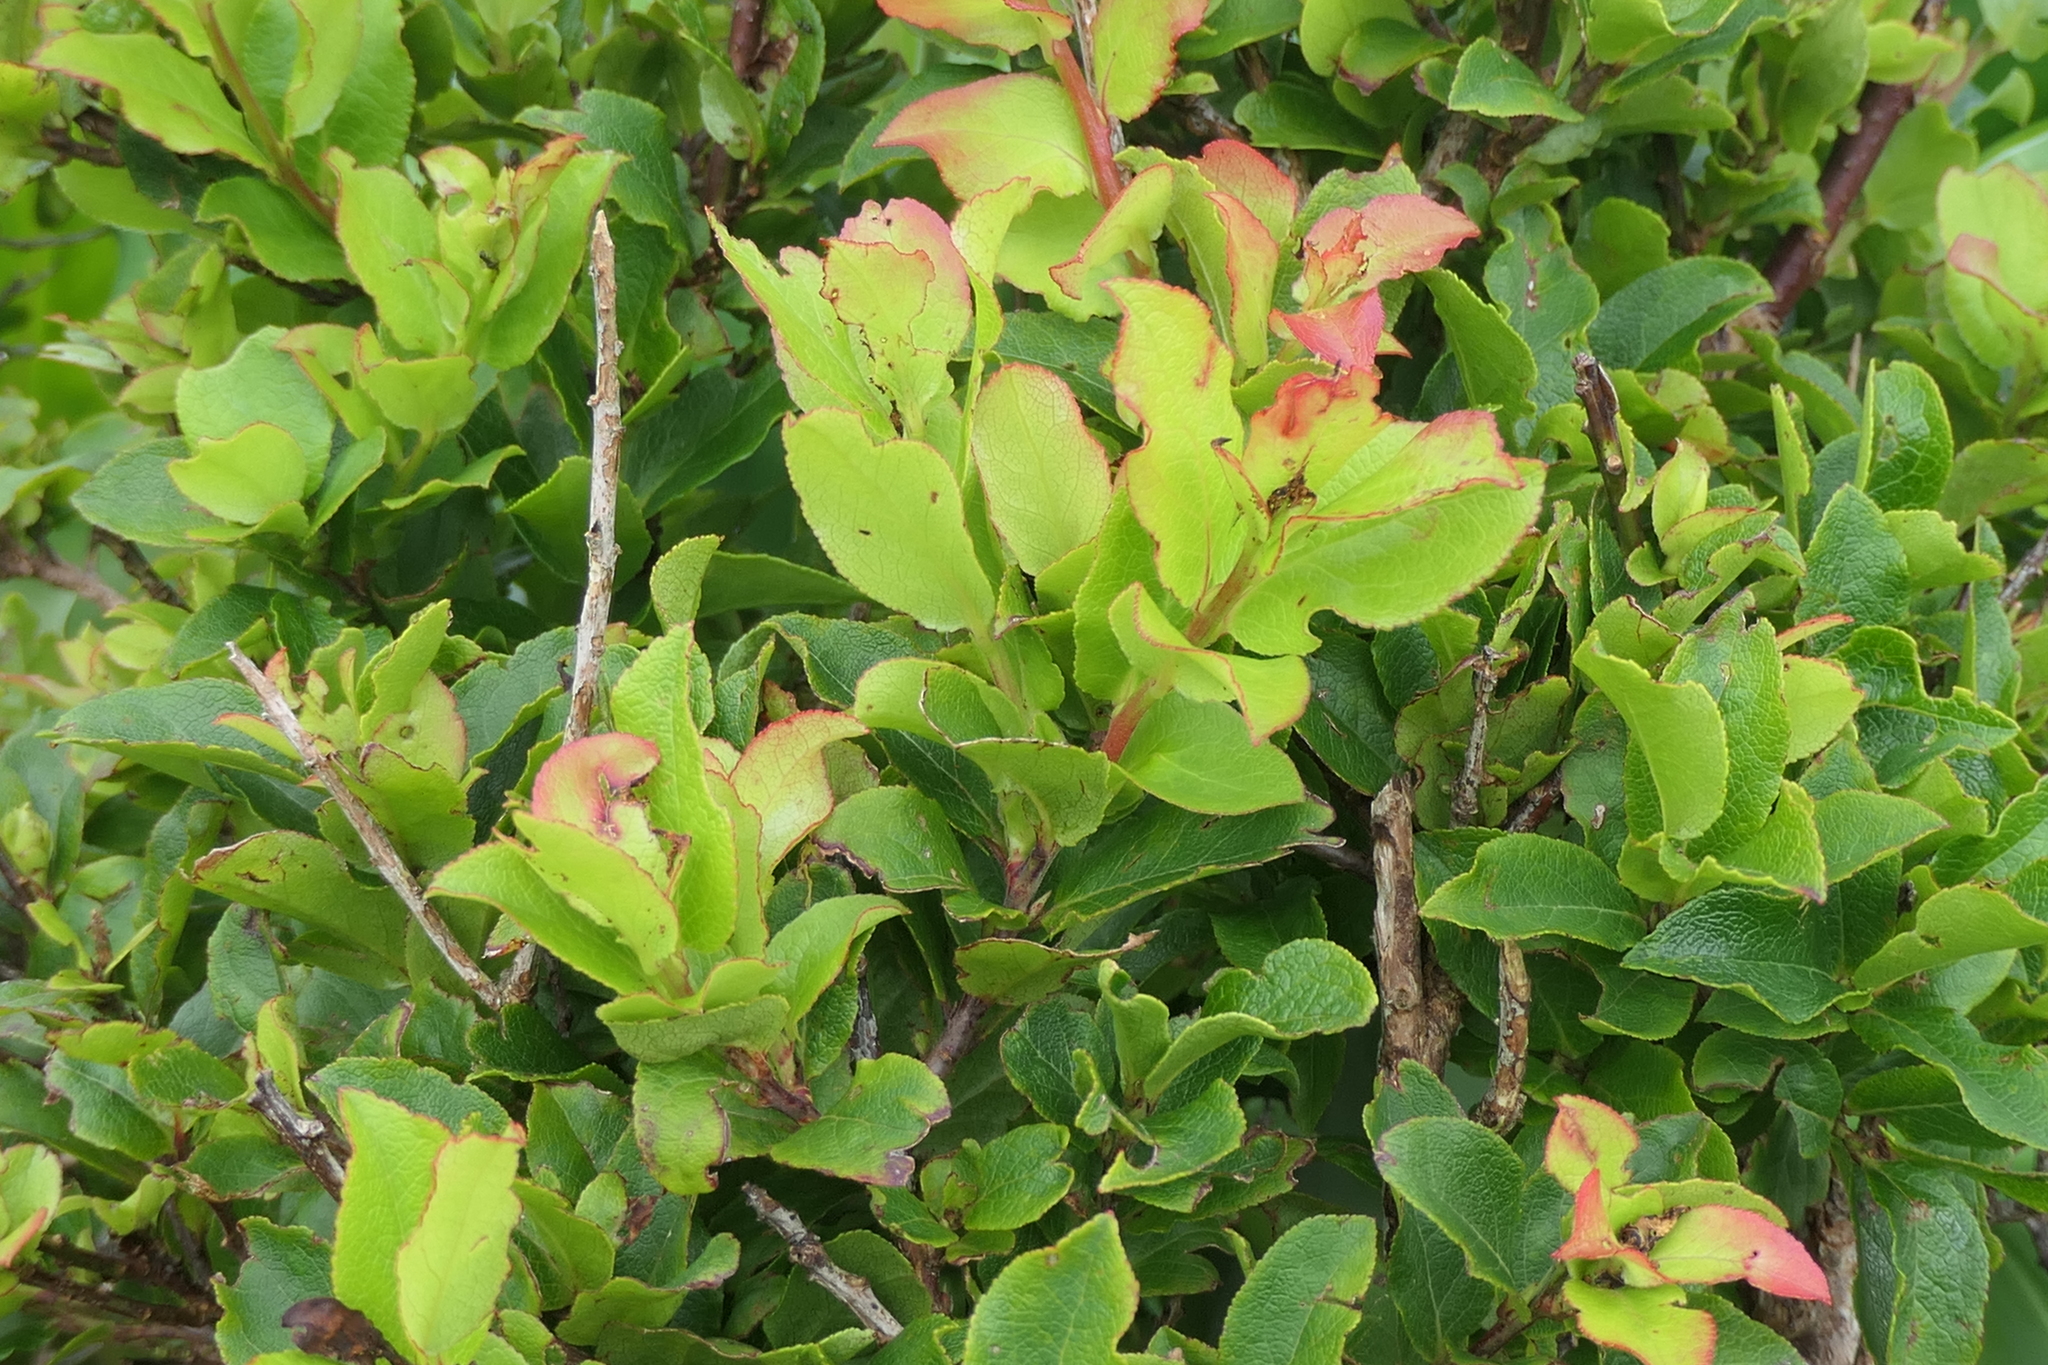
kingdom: Plantae
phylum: Tracheophyta
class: Magnoliopsida
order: Ericales
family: Ericaceae
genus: Vaccinium
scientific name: Vaccinium cylindraceum
